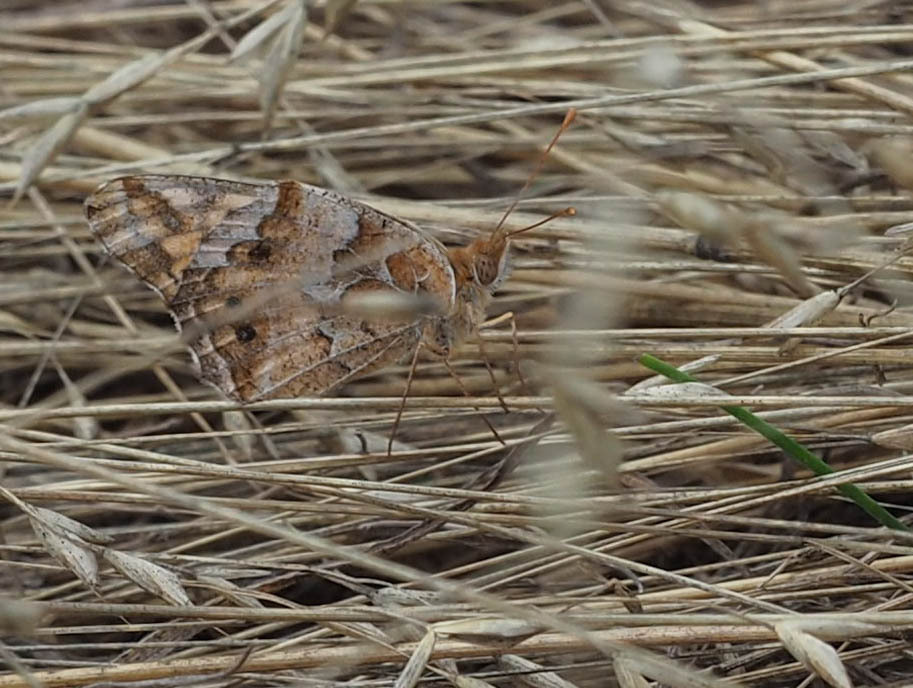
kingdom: Animalia
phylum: Arthropoda
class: Insecta
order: Lepidoptera
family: Nymphalidae
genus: Euptoieta
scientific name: Euptoieta claudia
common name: Variegated fritillary
